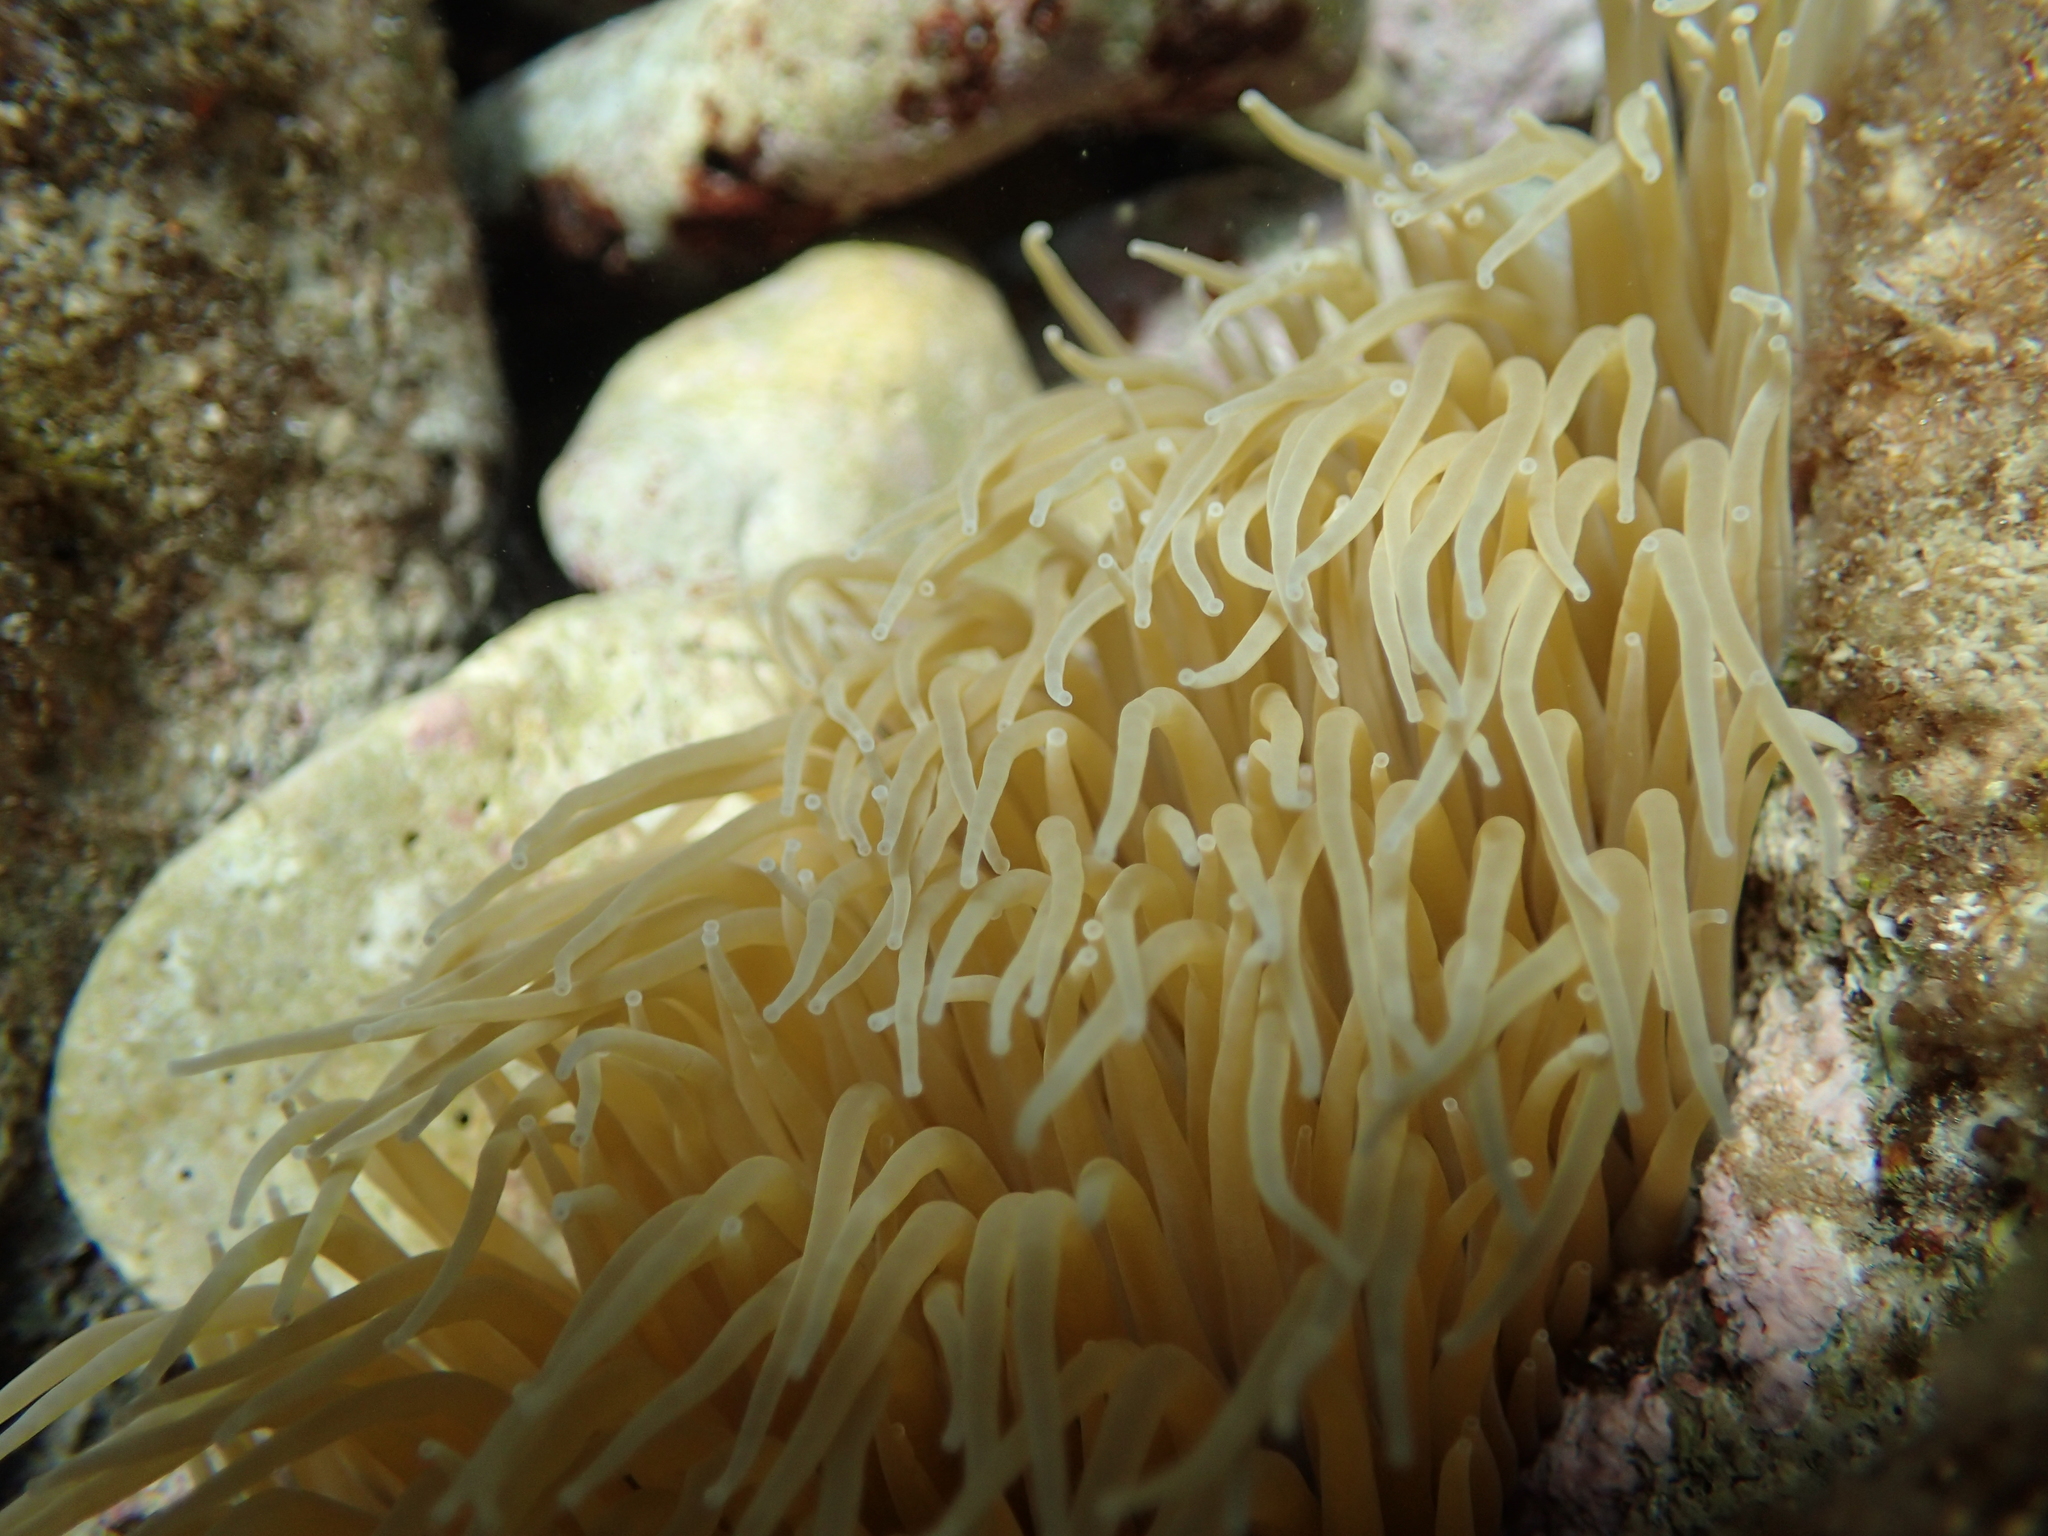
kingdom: Animalia
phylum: Cnidaria
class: Anthozoa
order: Actiniaria
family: Actiniidae
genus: Anemonia
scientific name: Anemonia viridis
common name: Snakelocks anemone
